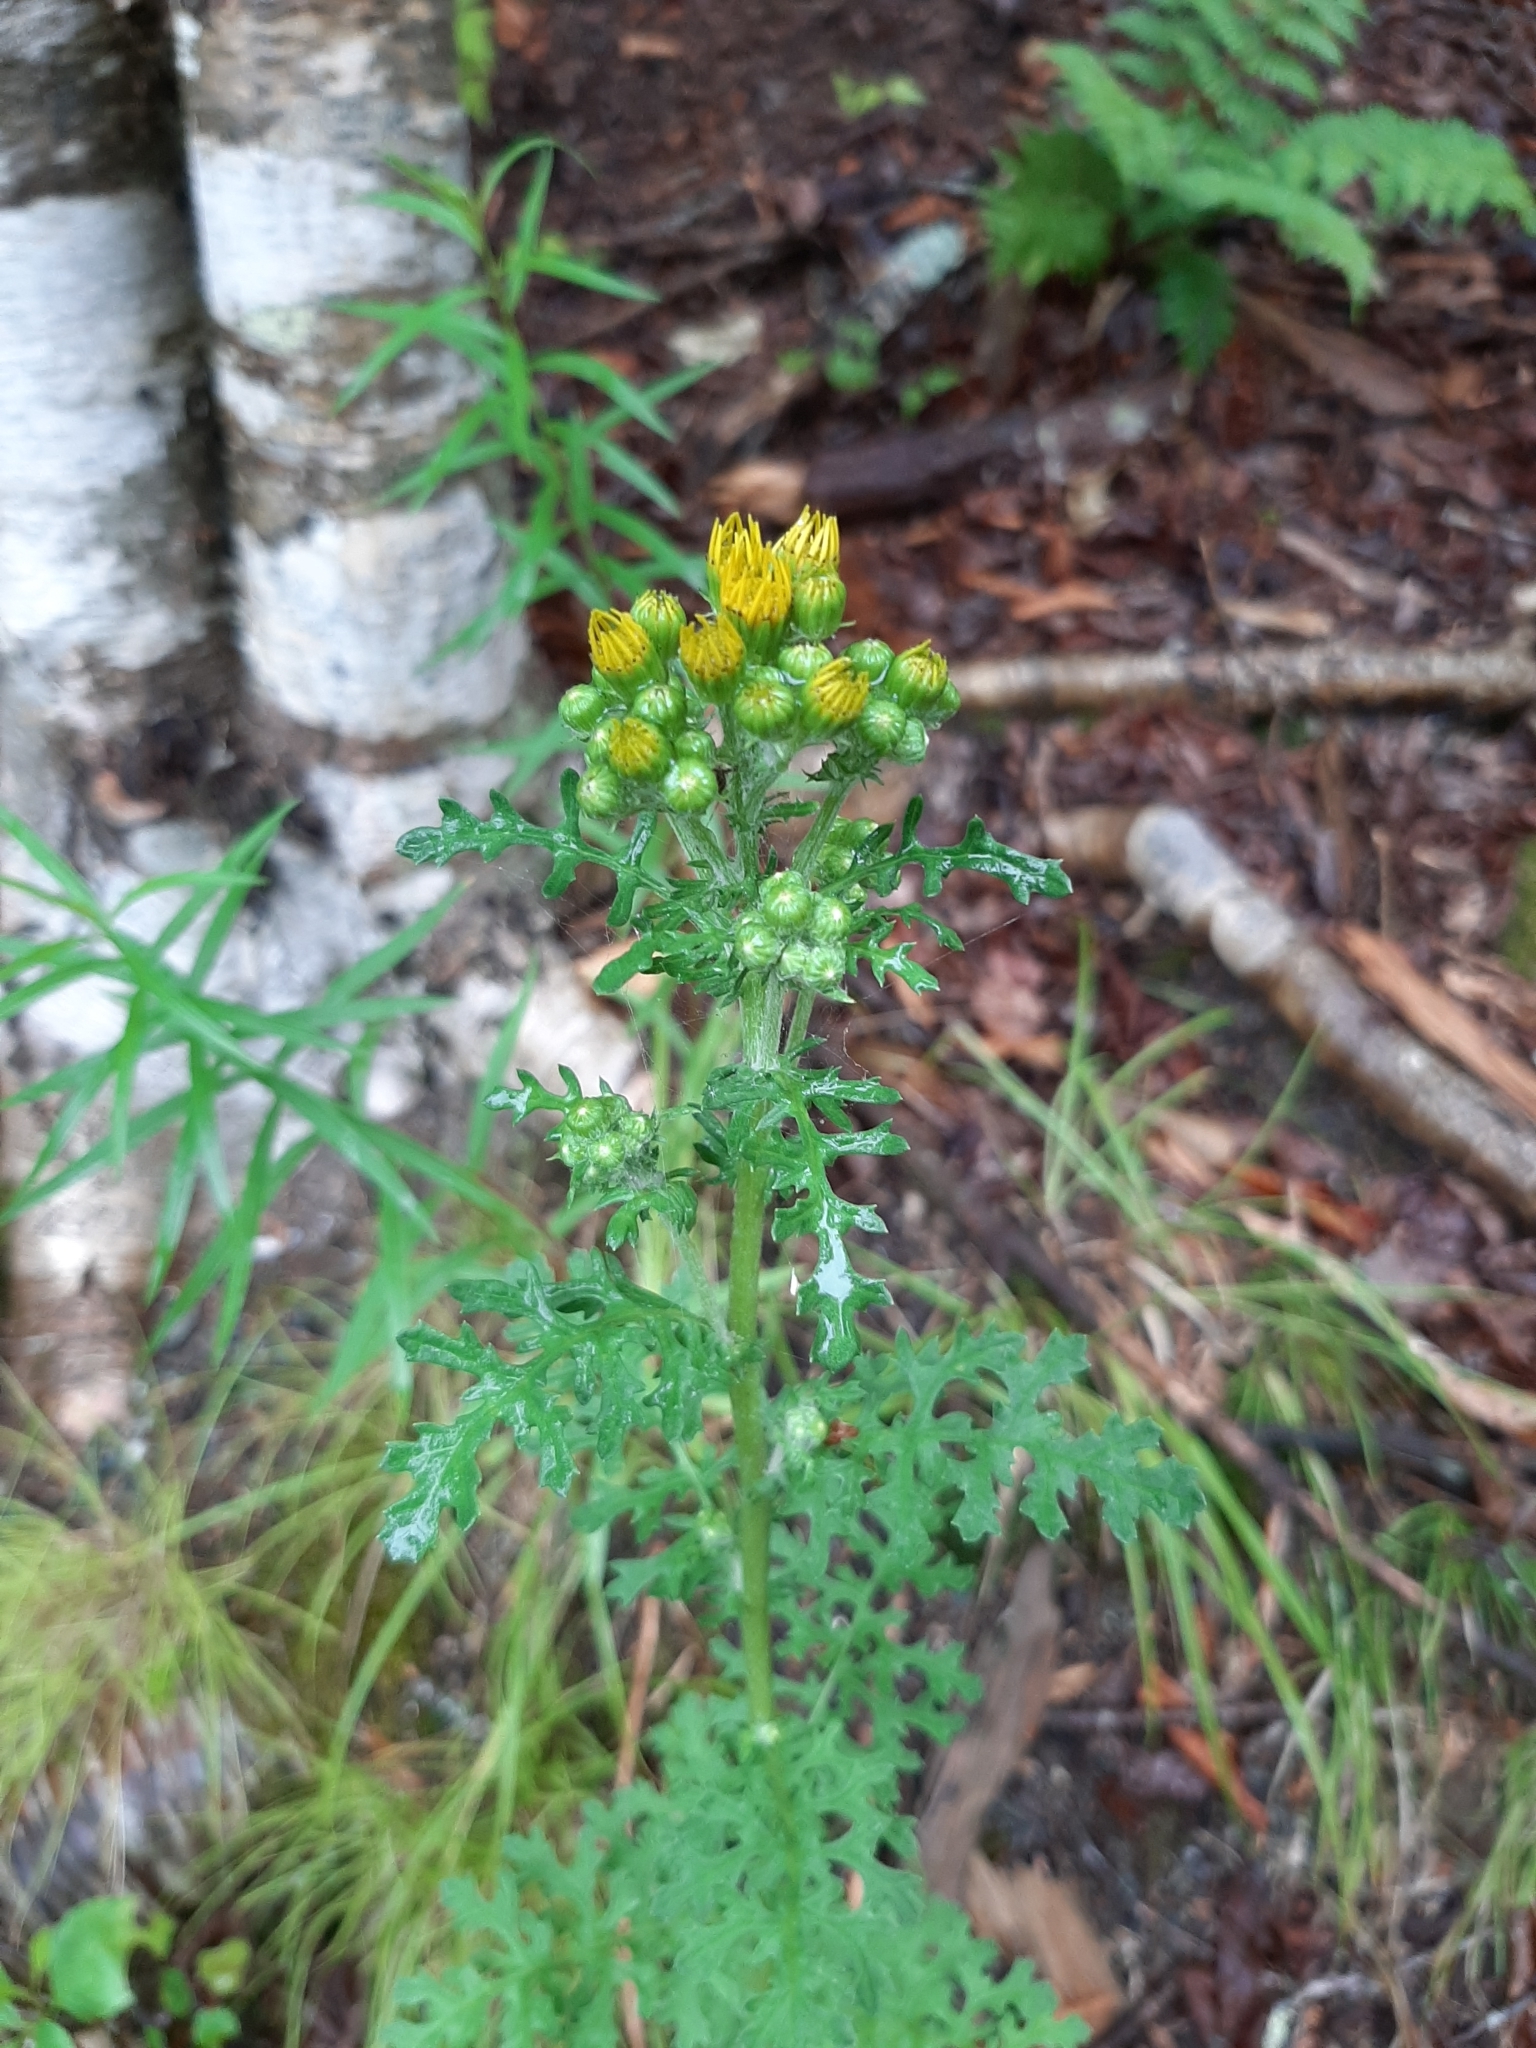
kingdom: Plantae
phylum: Tracheophyta
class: Magnoliopsida
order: Asterales
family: Asteraceae
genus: Jacobaea
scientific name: Jacobaea vulgaris
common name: Stinking willie
